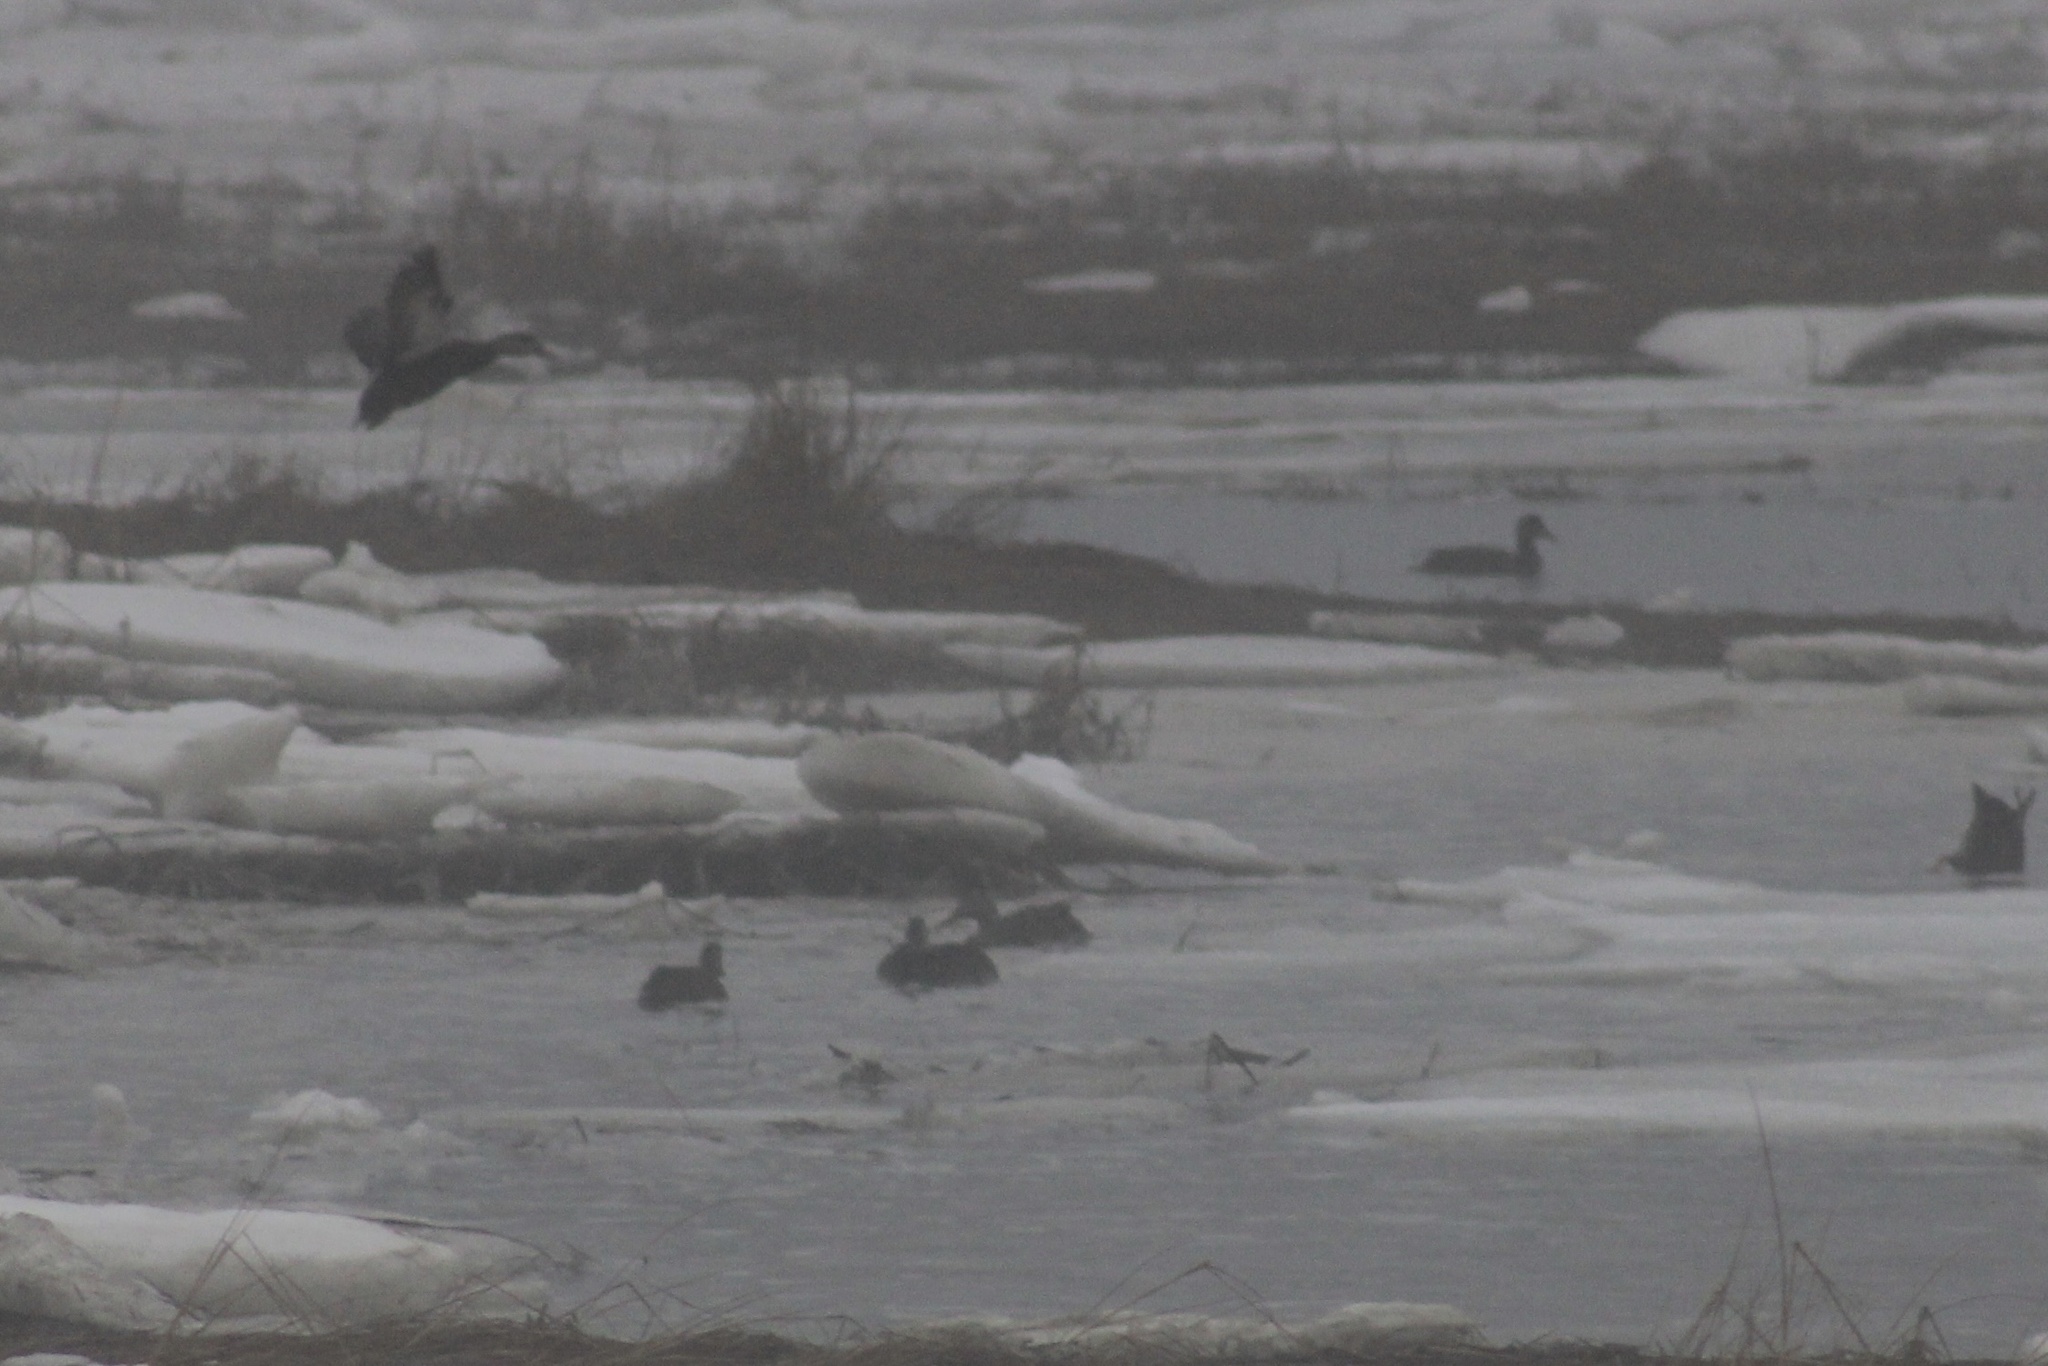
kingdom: Animalia
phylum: Chordata
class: Aves
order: Anseriformes
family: Anatidae
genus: Anas
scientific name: Anas rubripes
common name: American black duck
